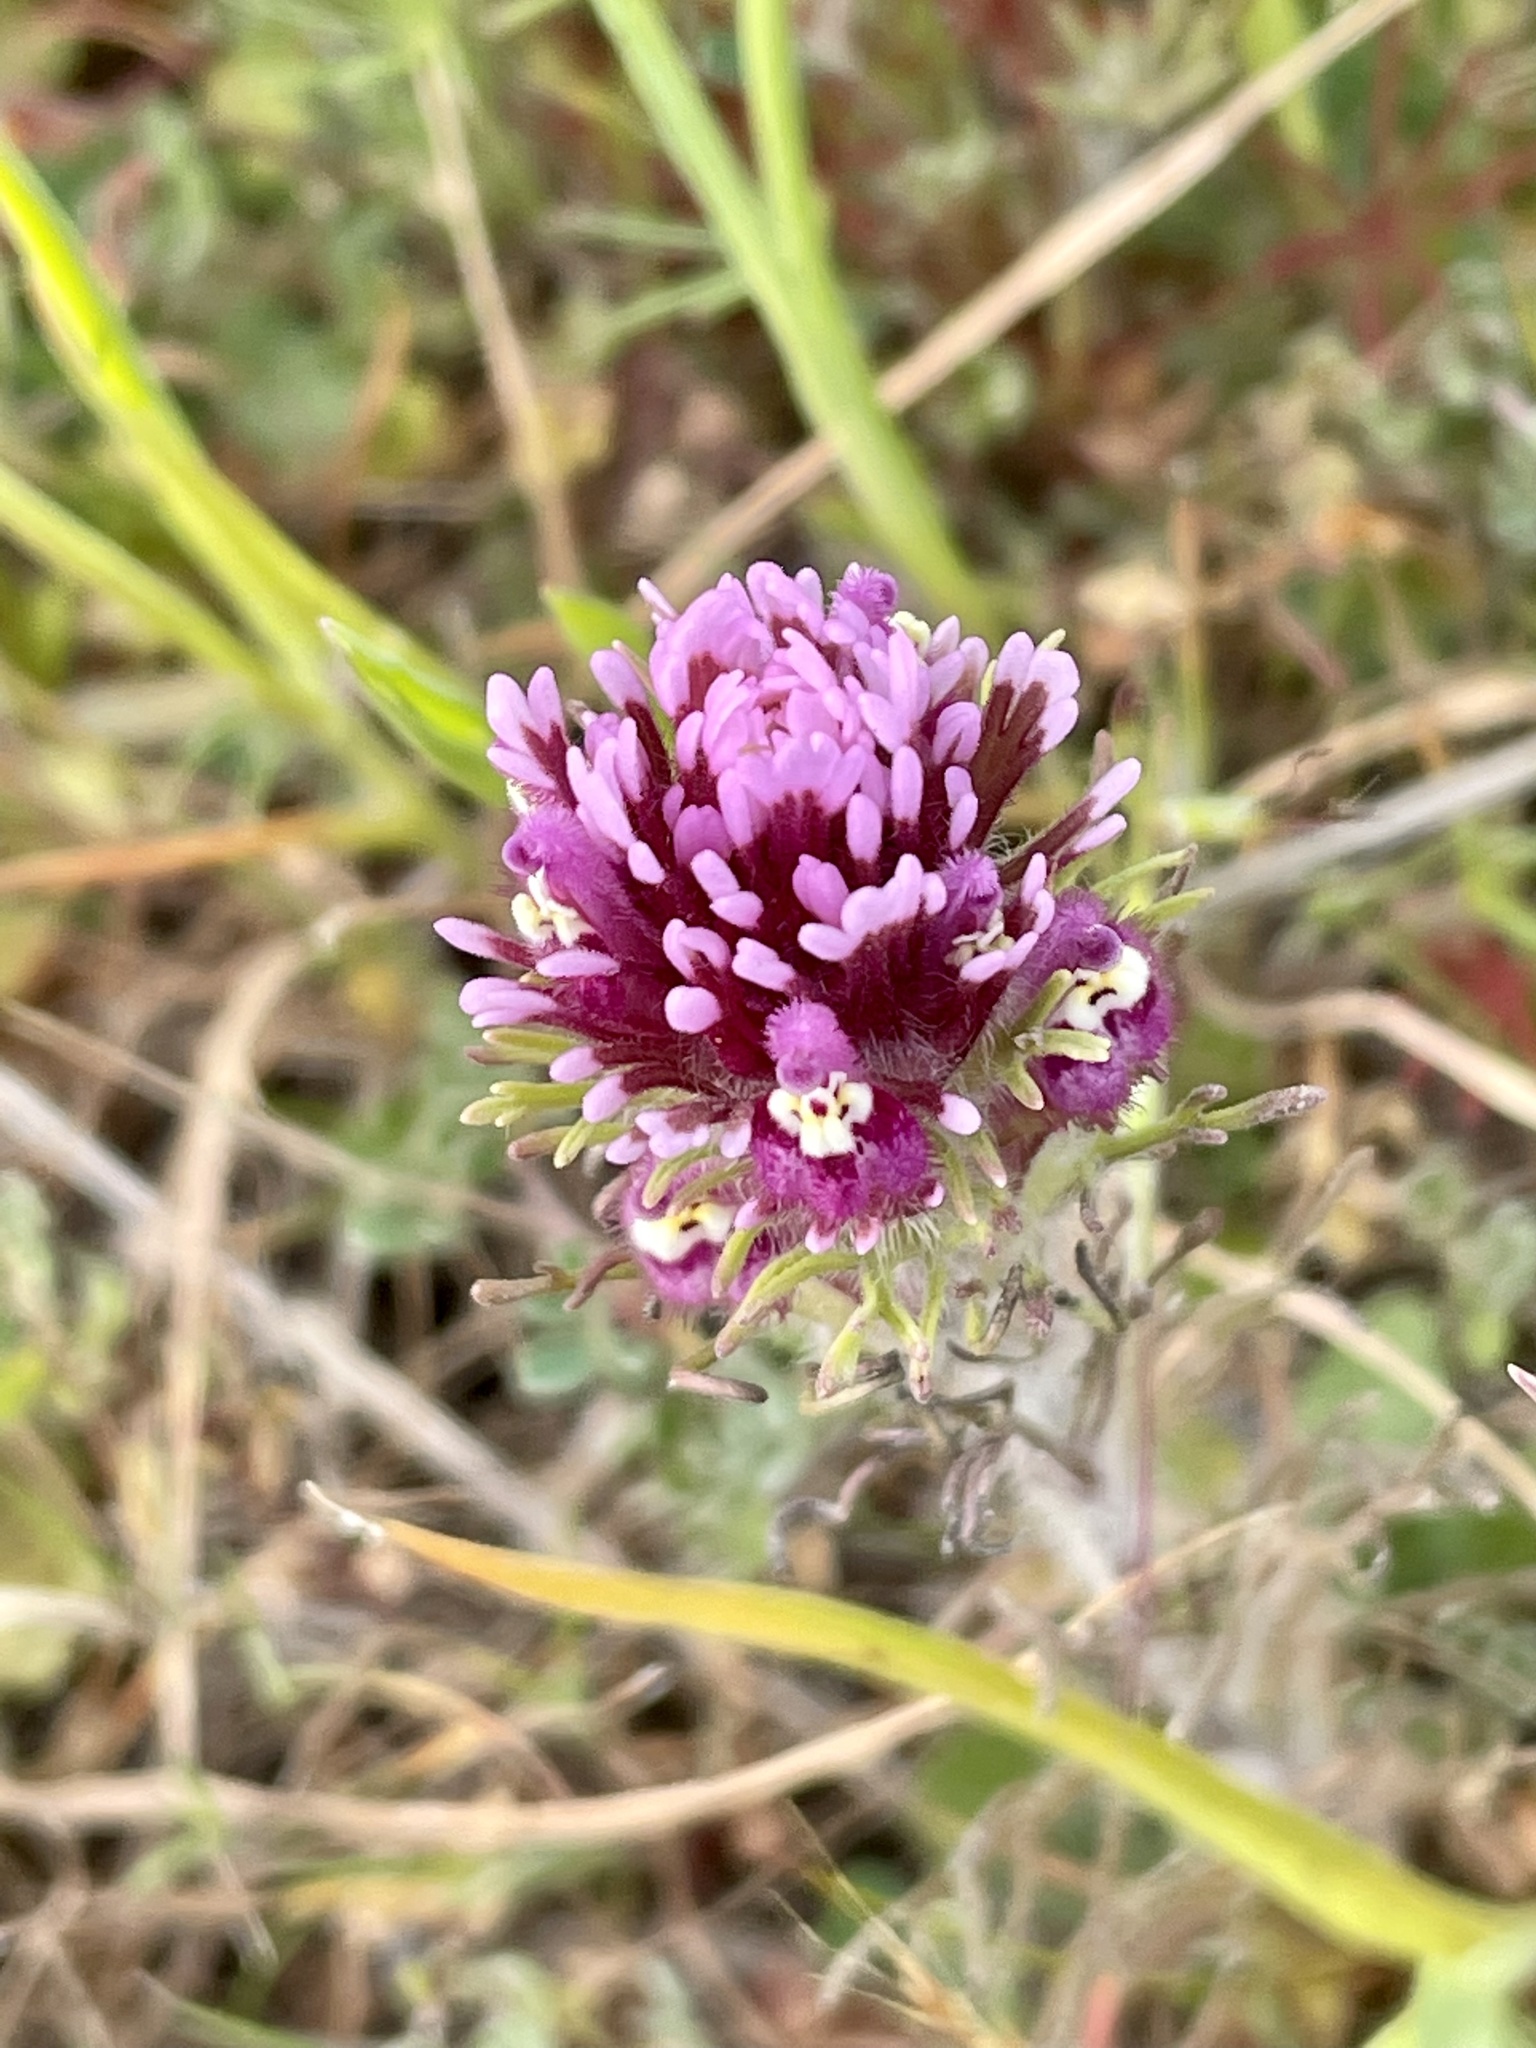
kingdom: Plantae
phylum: Tracheophyta
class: Magnoliopsida
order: Lamiales
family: Orobanchaceae
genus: Castilleja
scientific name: Castilleja exserta
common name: Purple owl-clover
